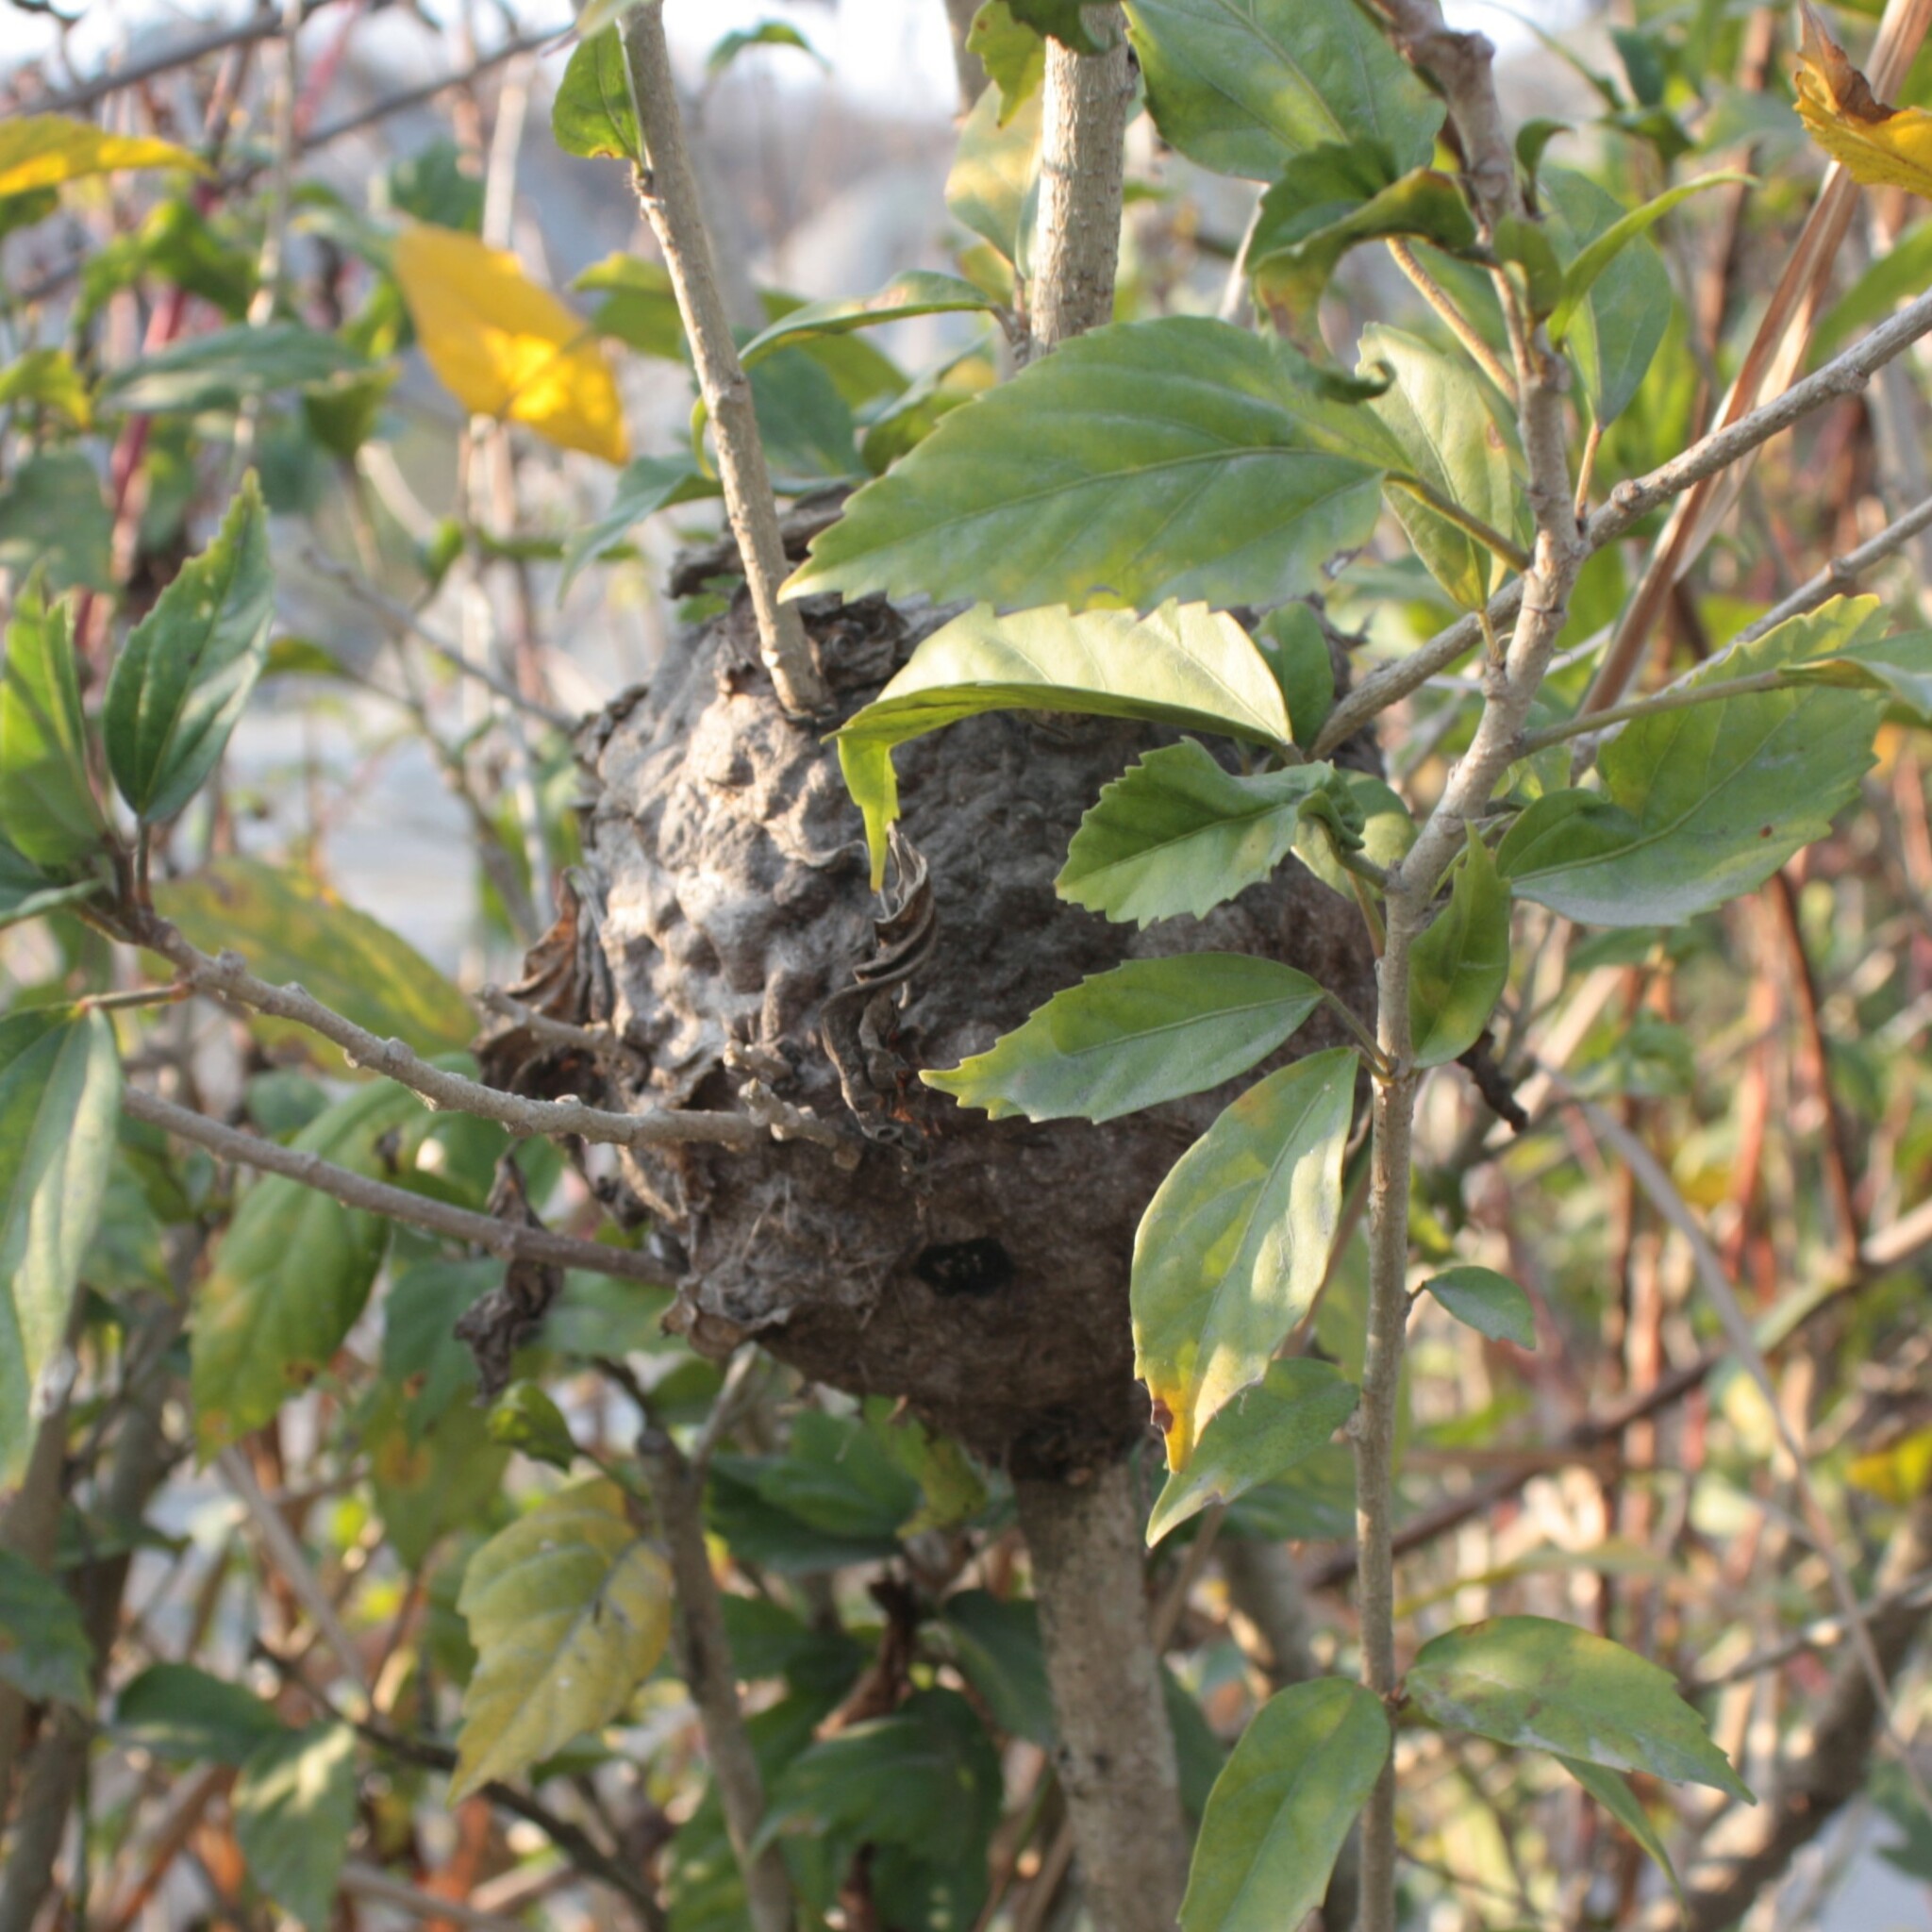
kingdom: Animalia
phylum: Arthropoda
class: Insecta
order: Hymenoptera
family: Formicidae
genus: Crematogaster
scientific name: Crematogaster rogenhoferi
